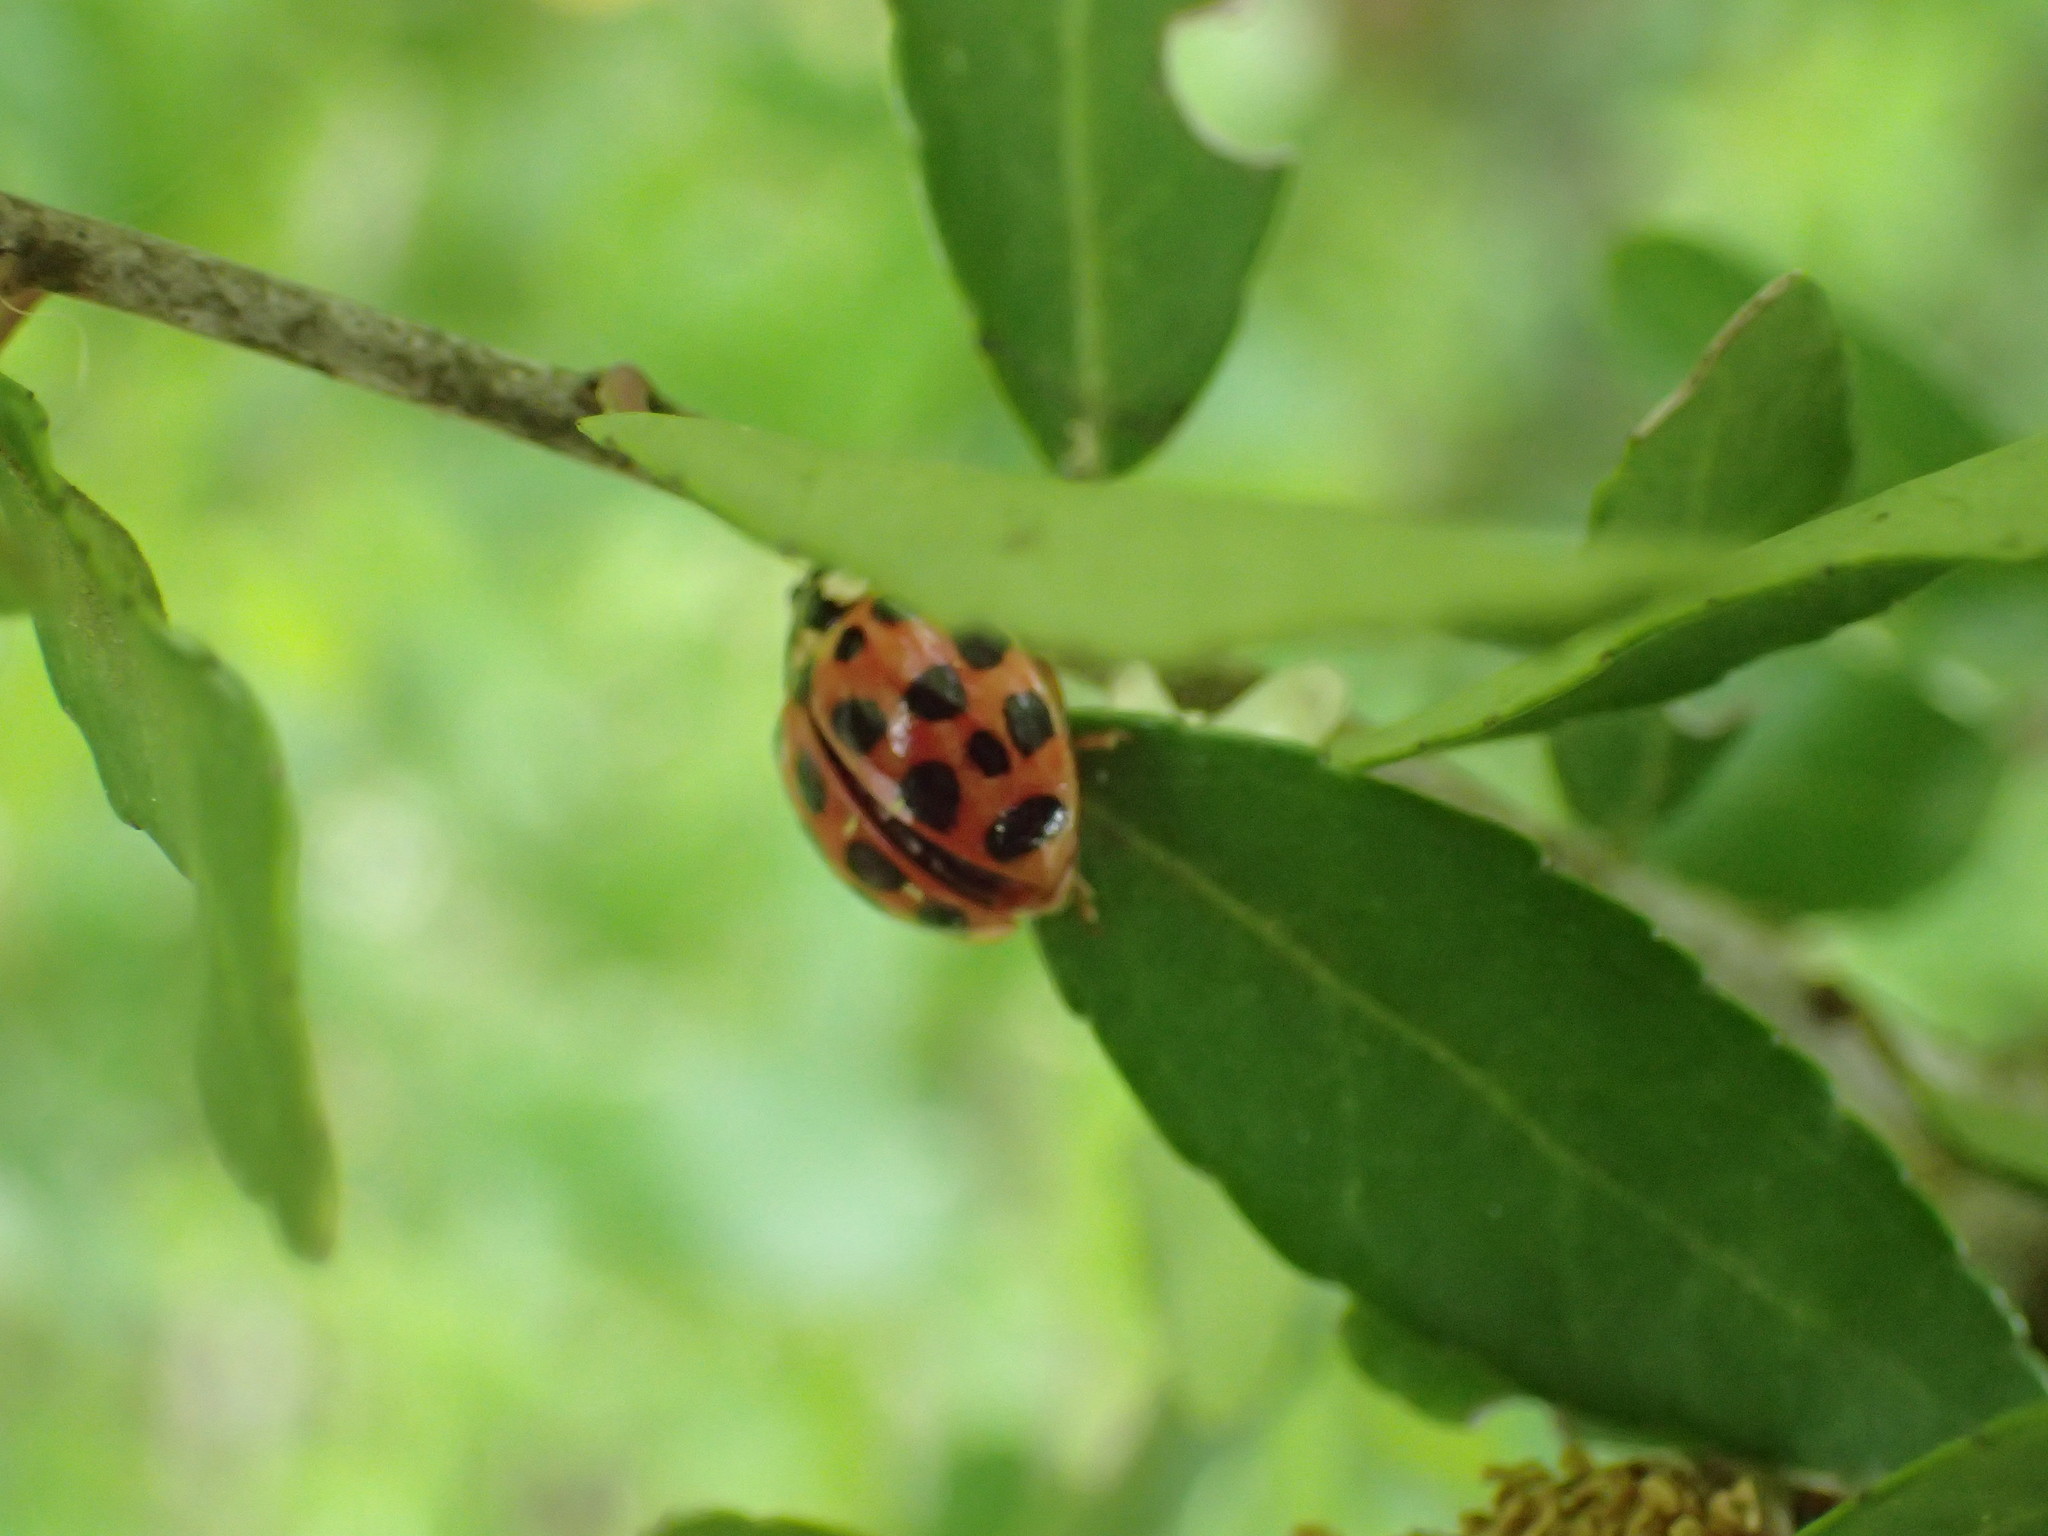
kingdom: Animalia
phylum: Arthropoda
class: Insecta
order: Coleoptera
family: Coccinellidae
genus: Harmonia
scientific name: Harmonia axyridis
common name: Harlequin ladybird
